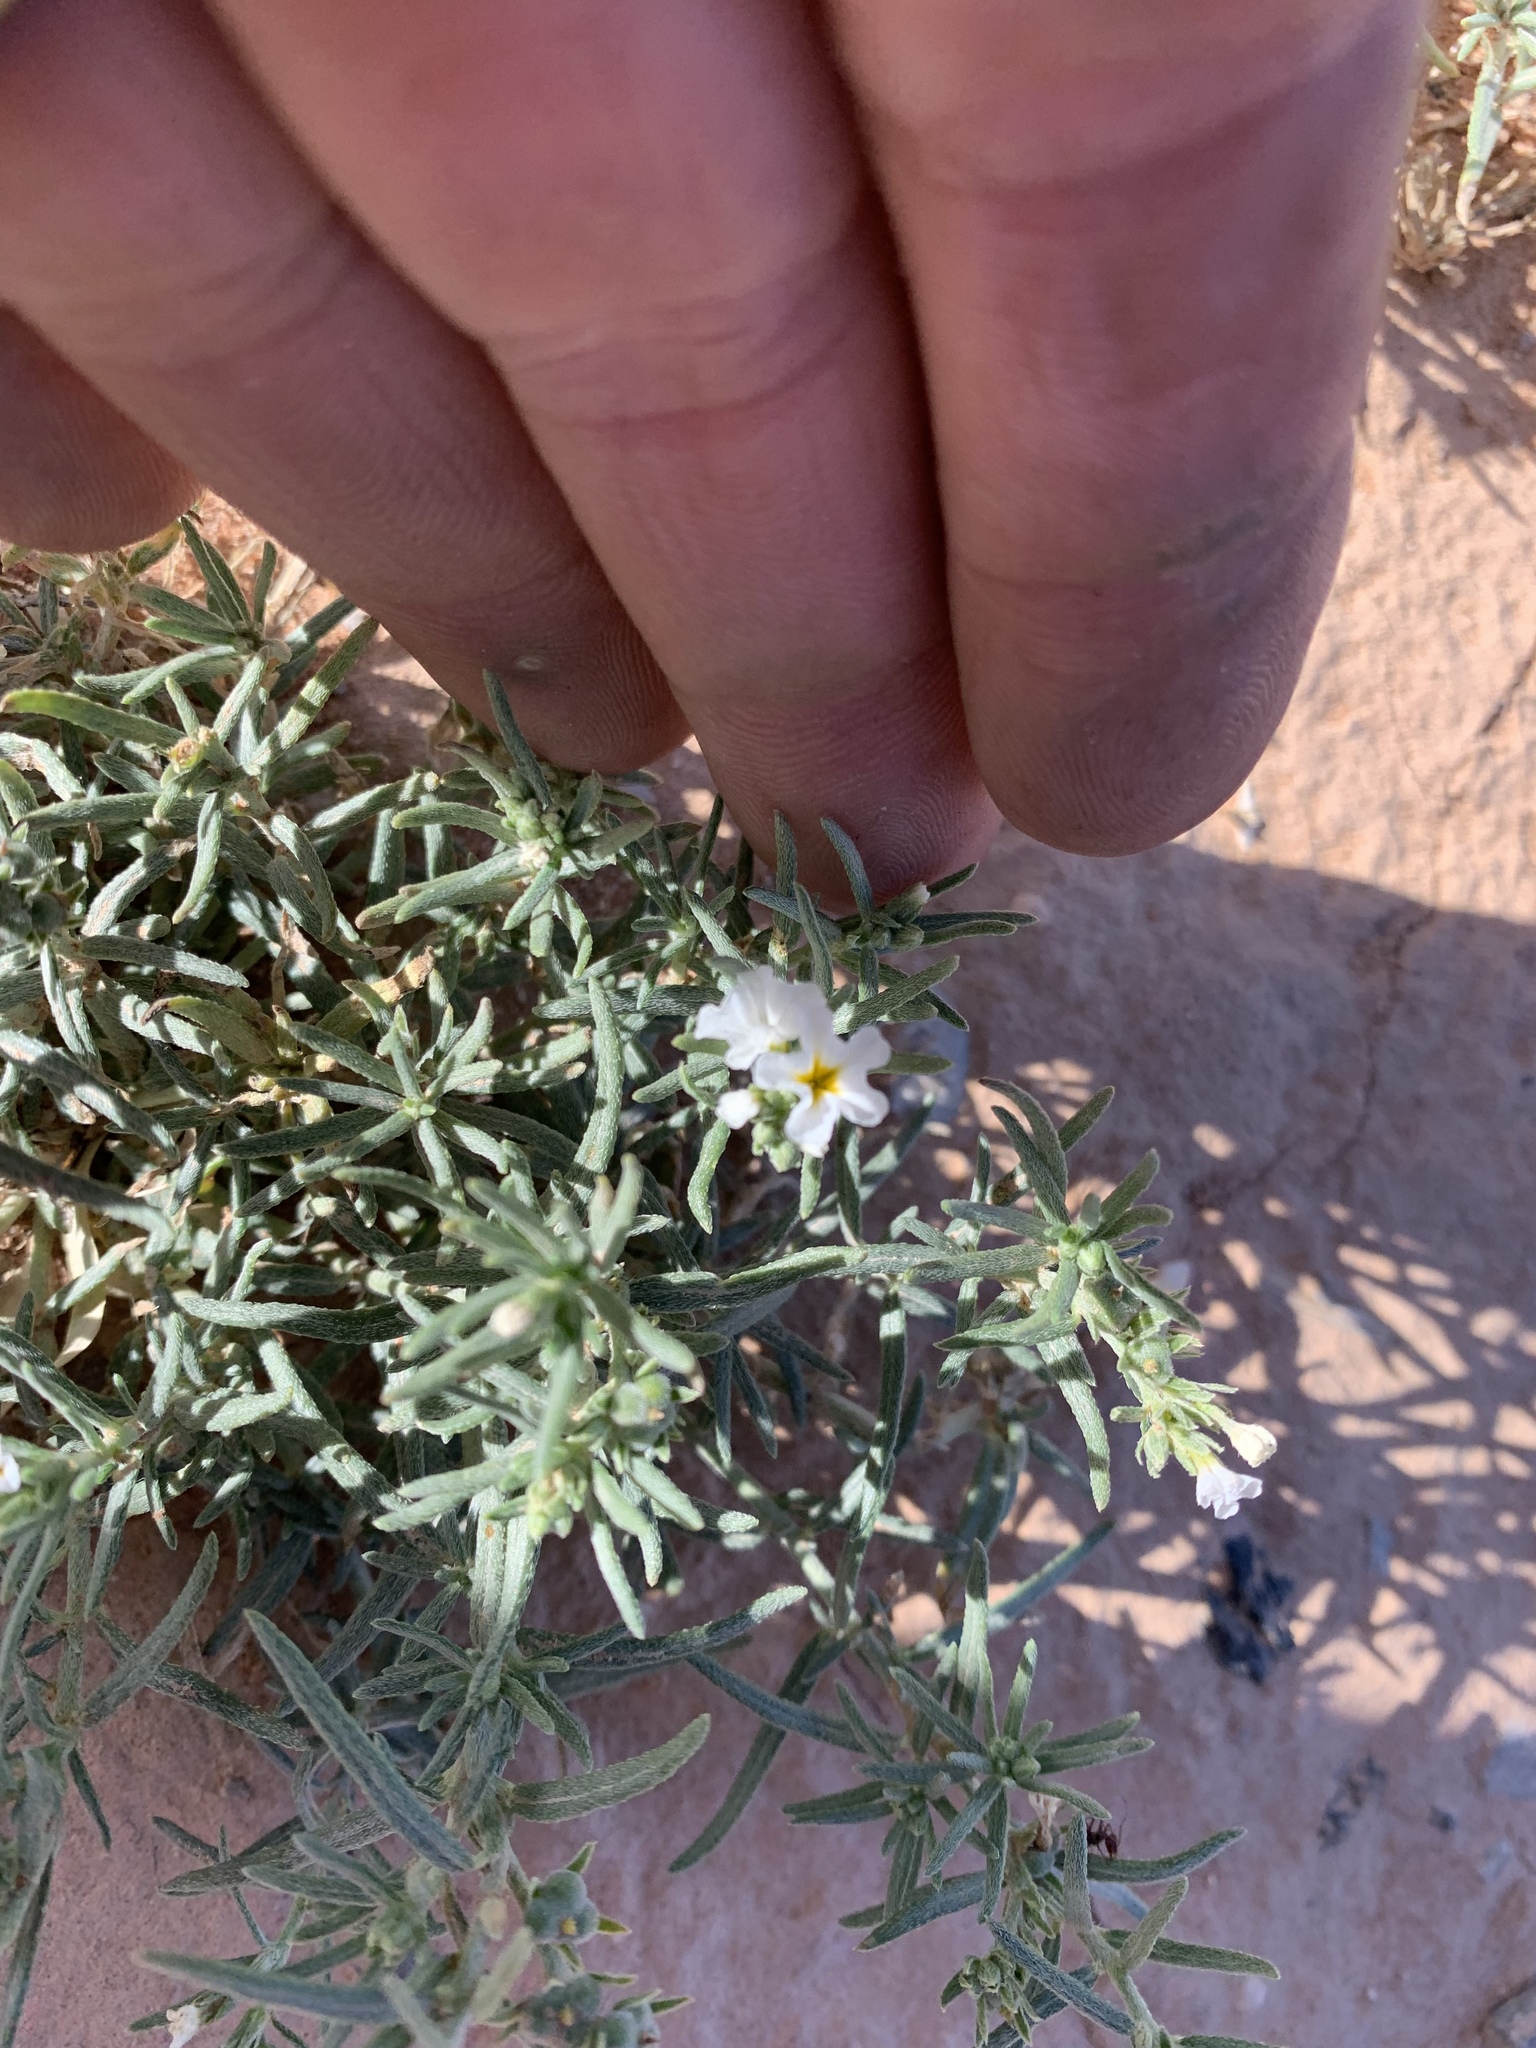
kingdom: Plantae
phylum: Tracheophyta
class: Magnoliopsida
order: Boraginales
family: Heliotropiaceae
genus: Euploca
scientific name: Euploca greggii
